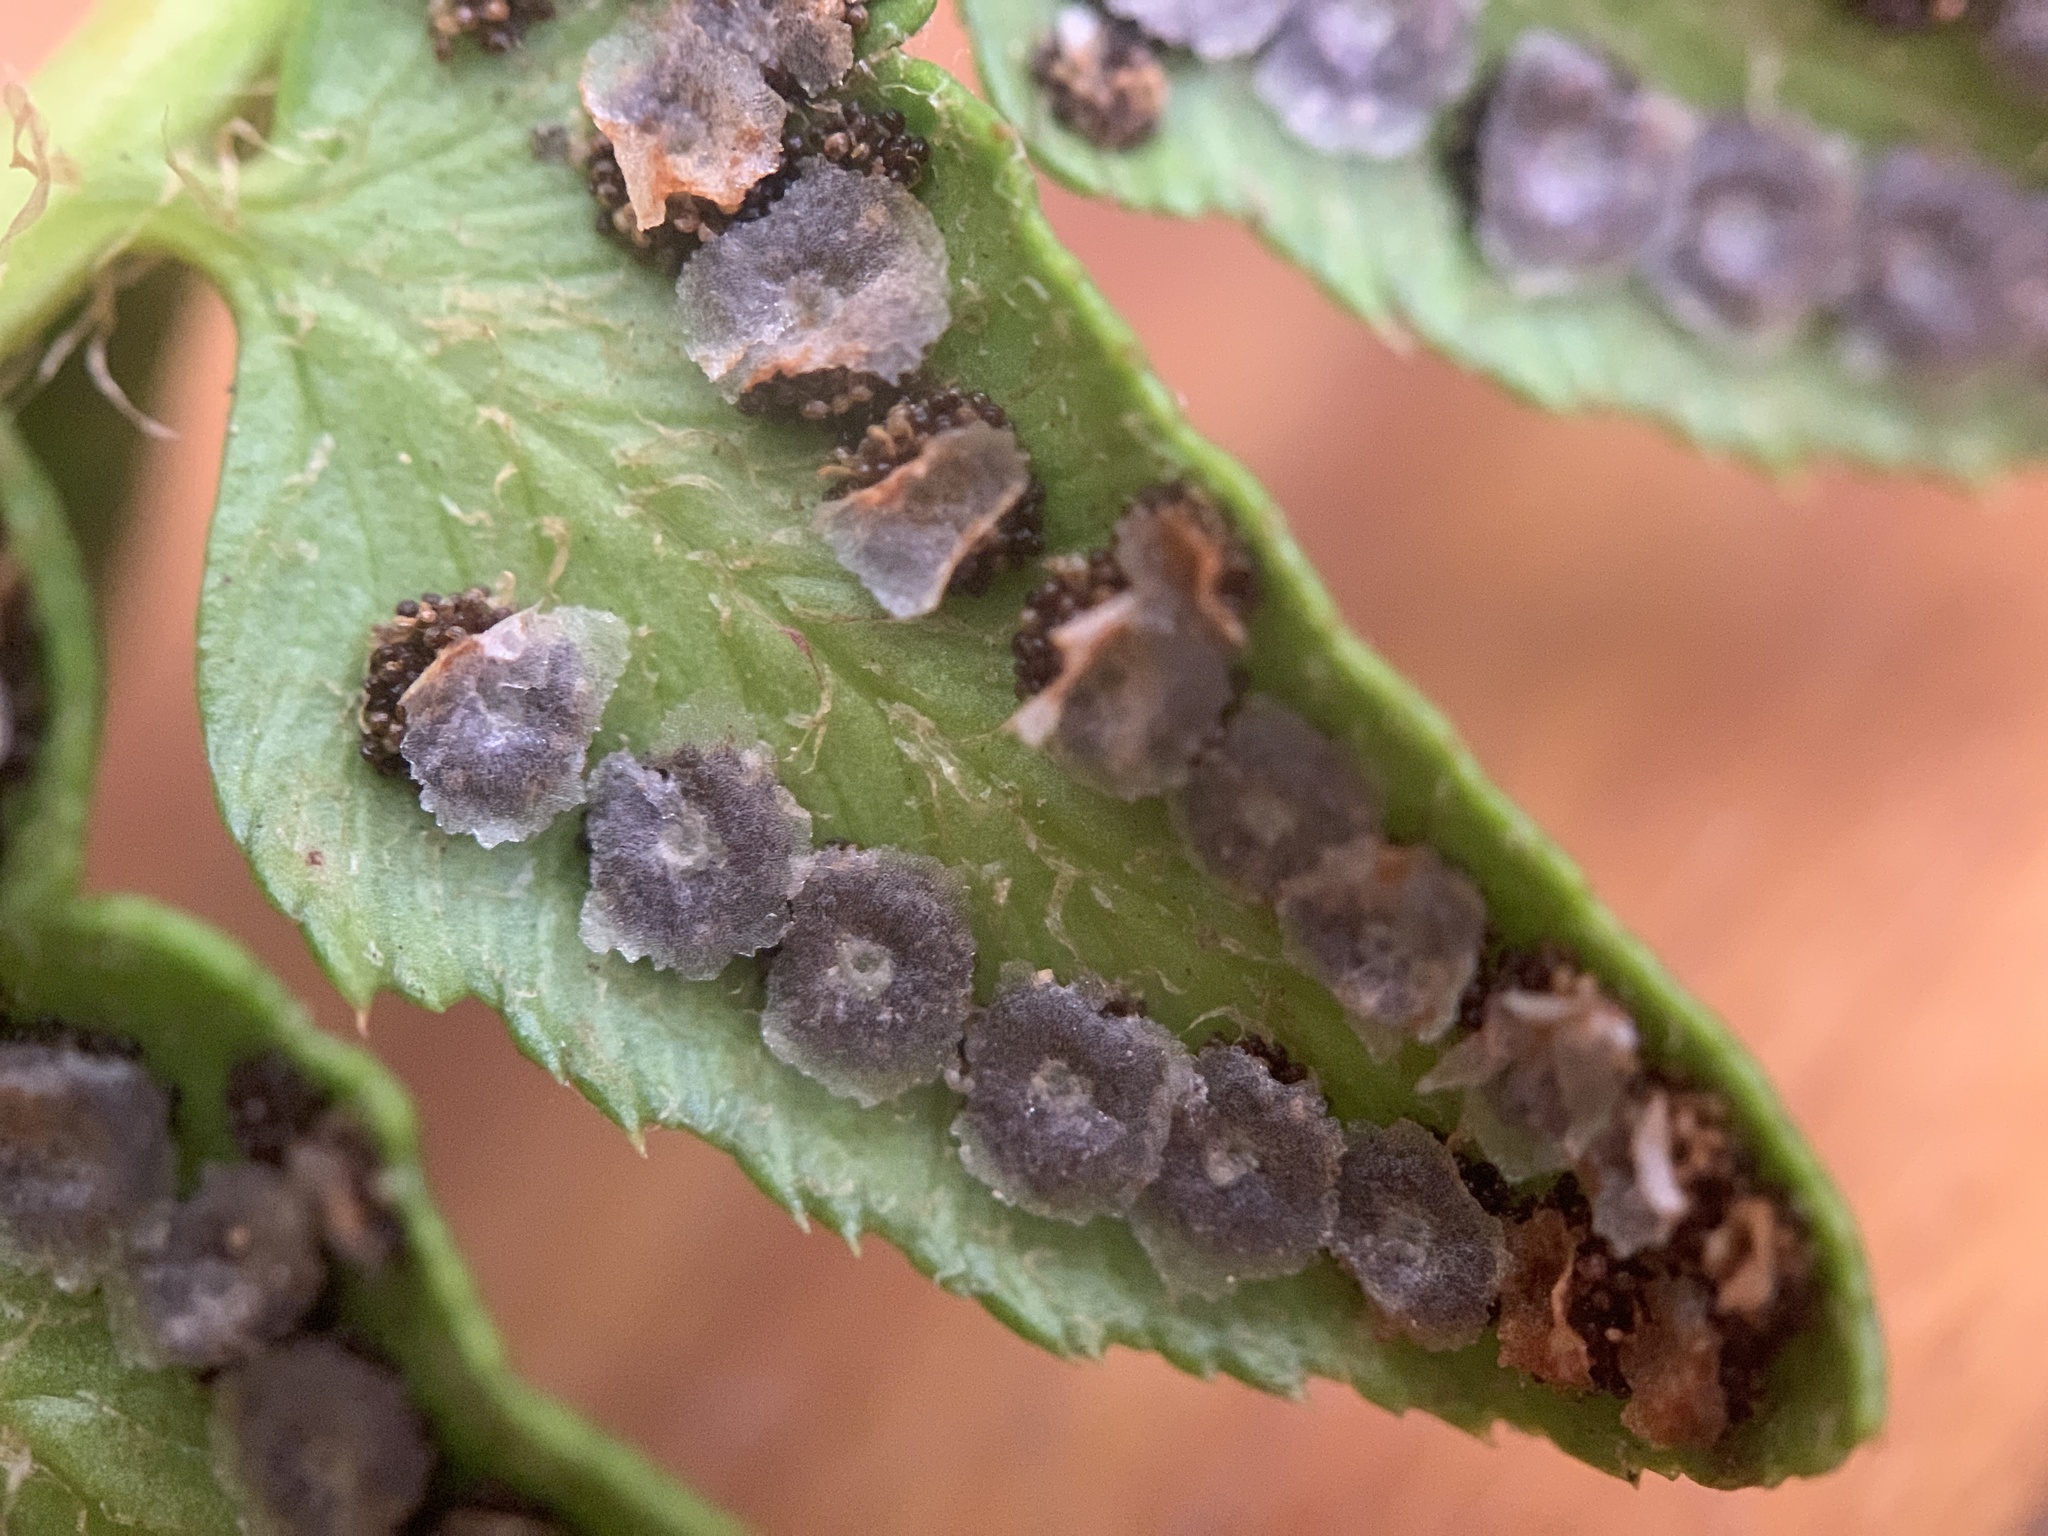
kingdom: Plantae
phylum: Tracheophyta
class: Polypodiopsida
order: Polypodiales
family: Dryopteridaceae
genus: Polystichum
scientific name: Polystichum lonchitis
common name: Holly fern
